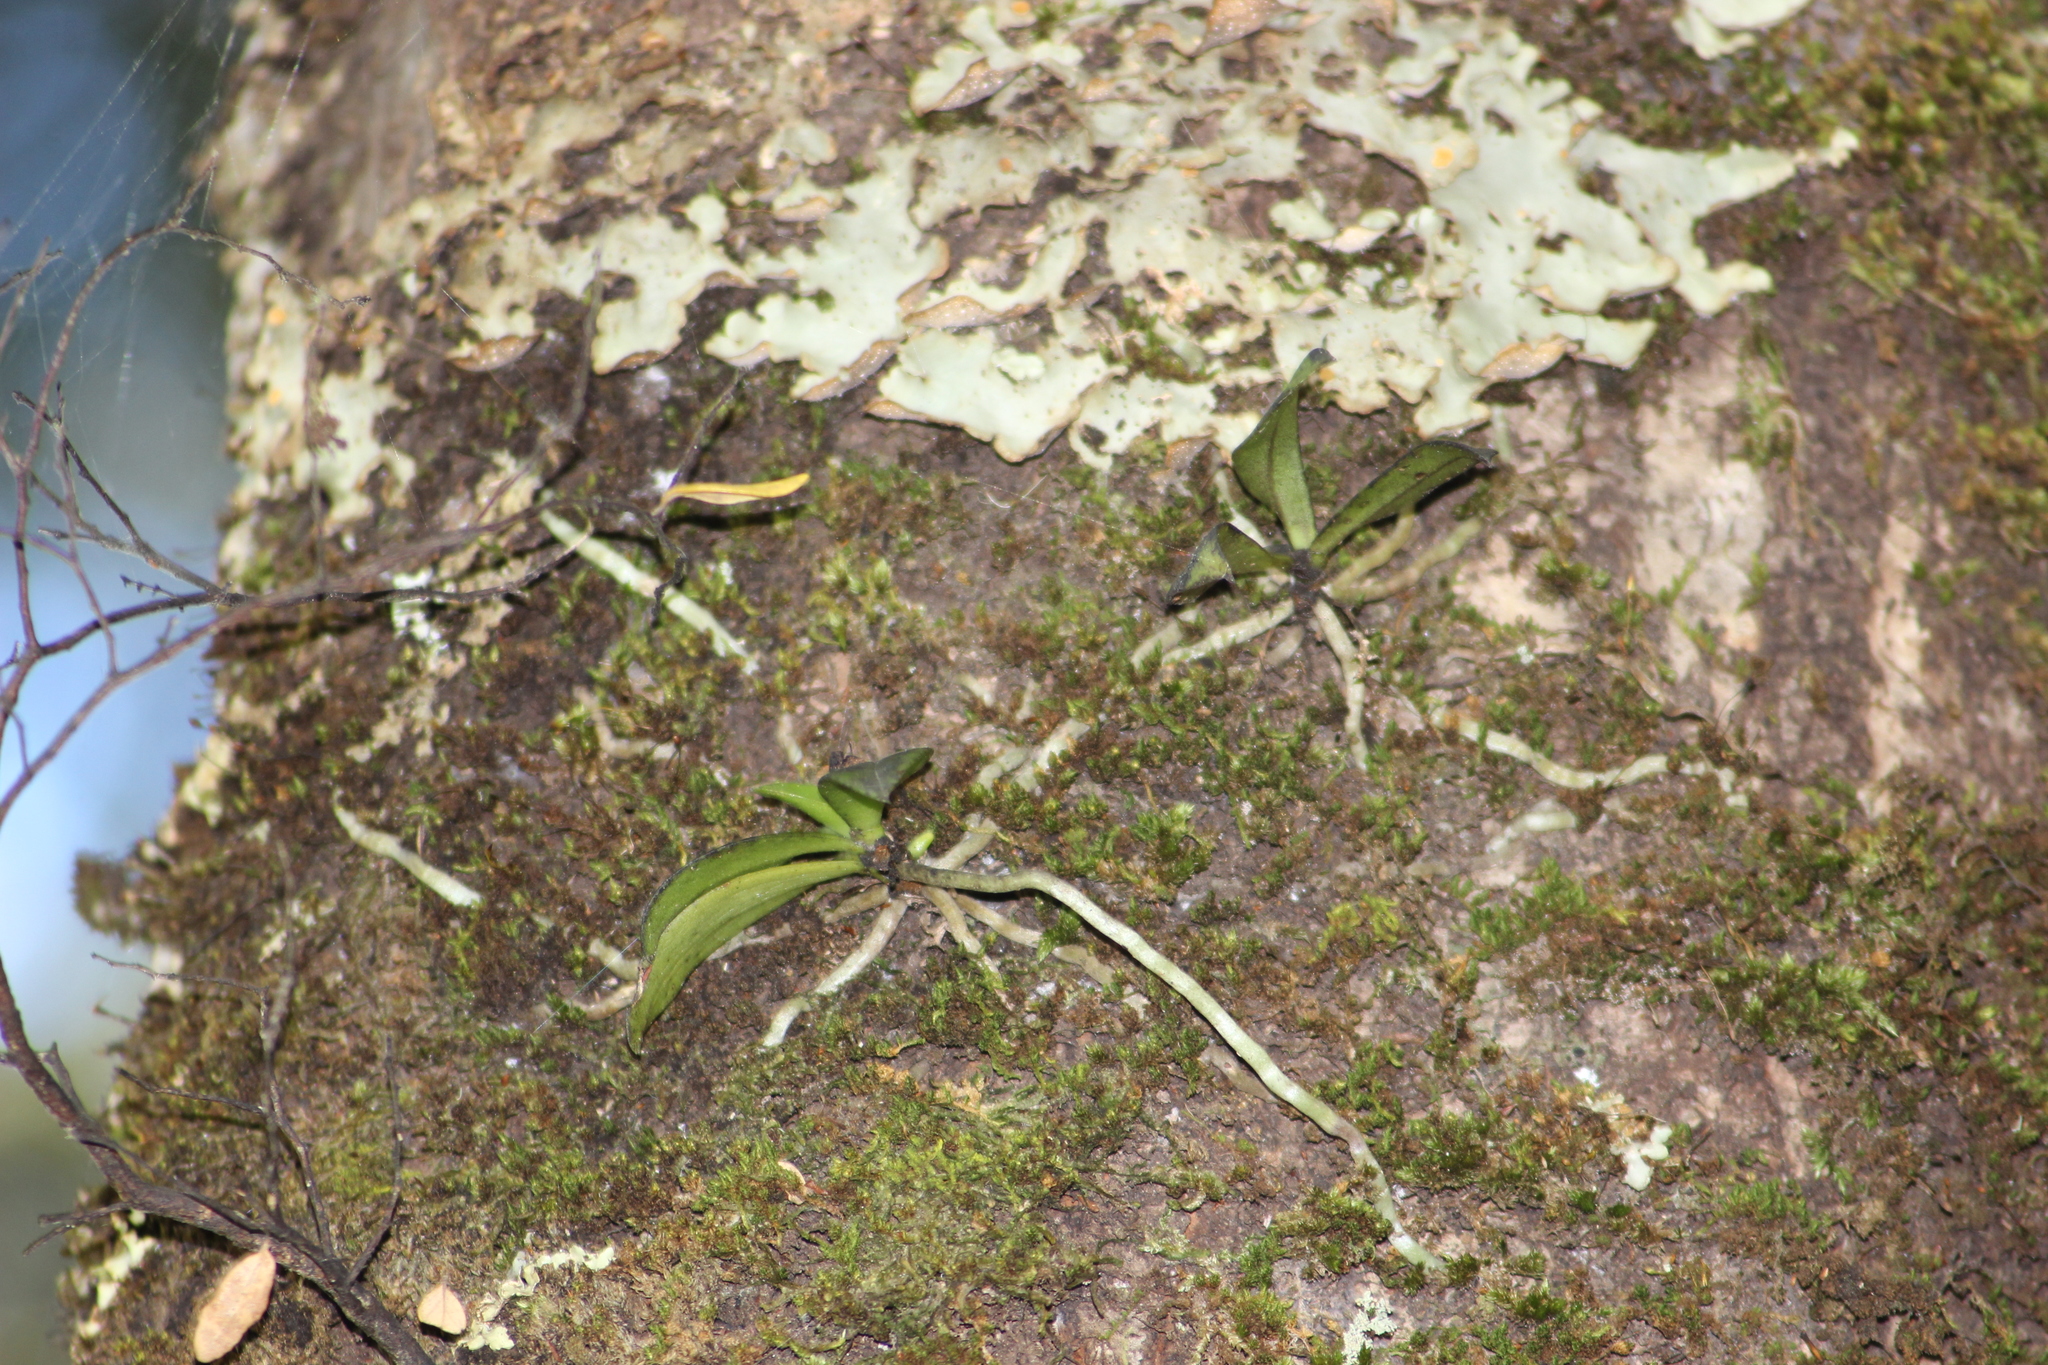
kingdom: Plantae
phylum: Tracheophyta
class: Liliopsida
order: Asparagales
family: Orchidaceae
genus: Drymoanthus
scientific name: Drymoanthus adversus
